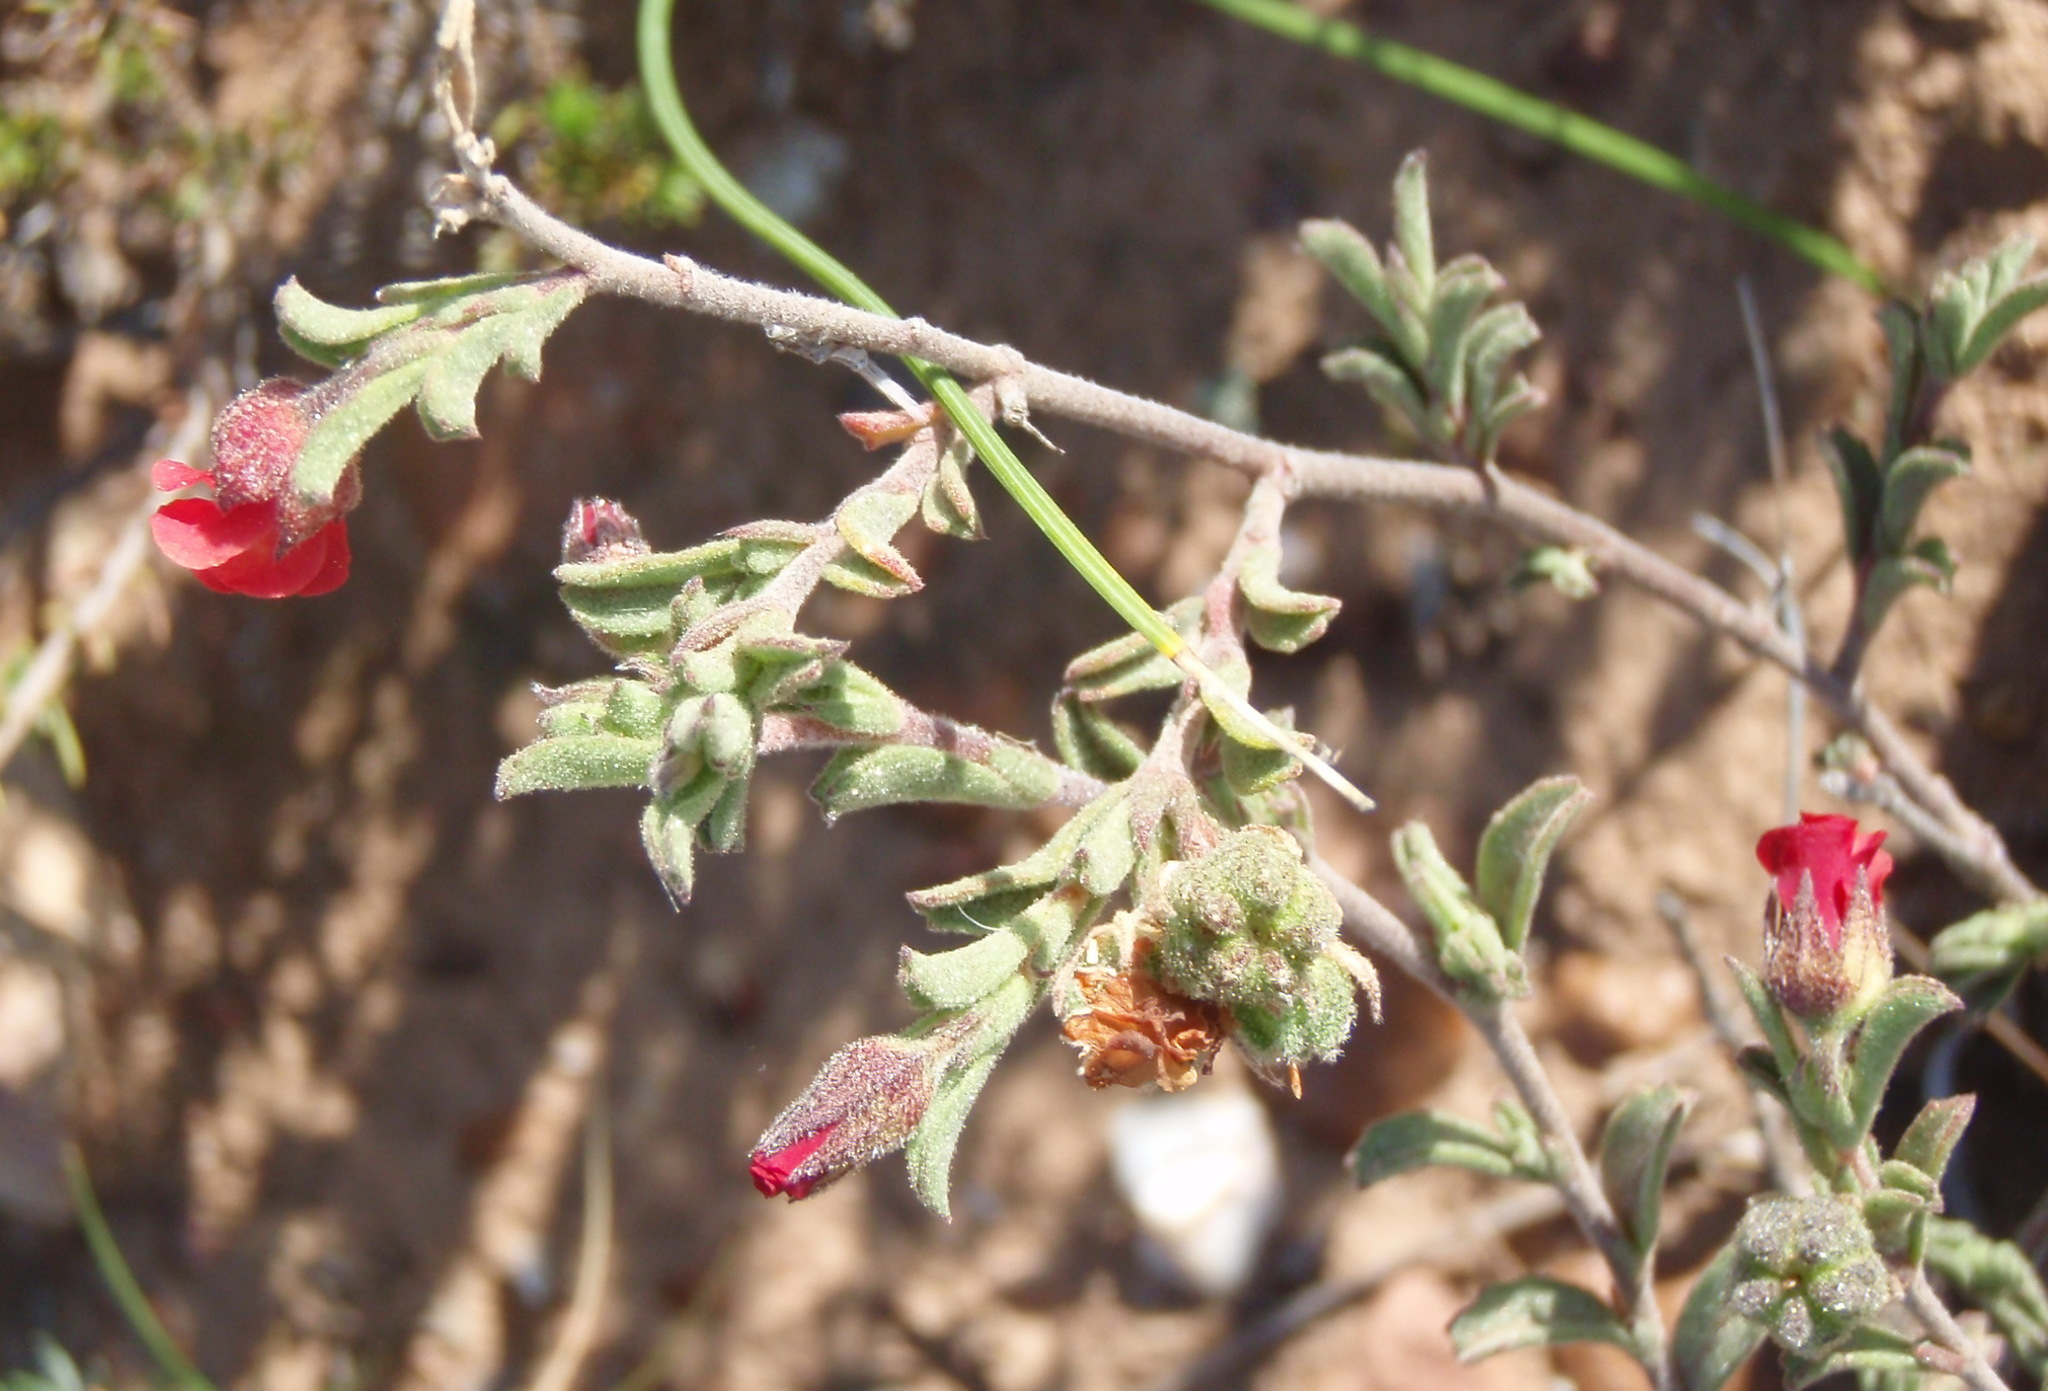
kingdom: Plantae
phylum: Tracheophyta
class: Magnoliopsida
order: Malvales
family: Malvaceae
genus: Hermannia
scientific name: Hermannia flammula
